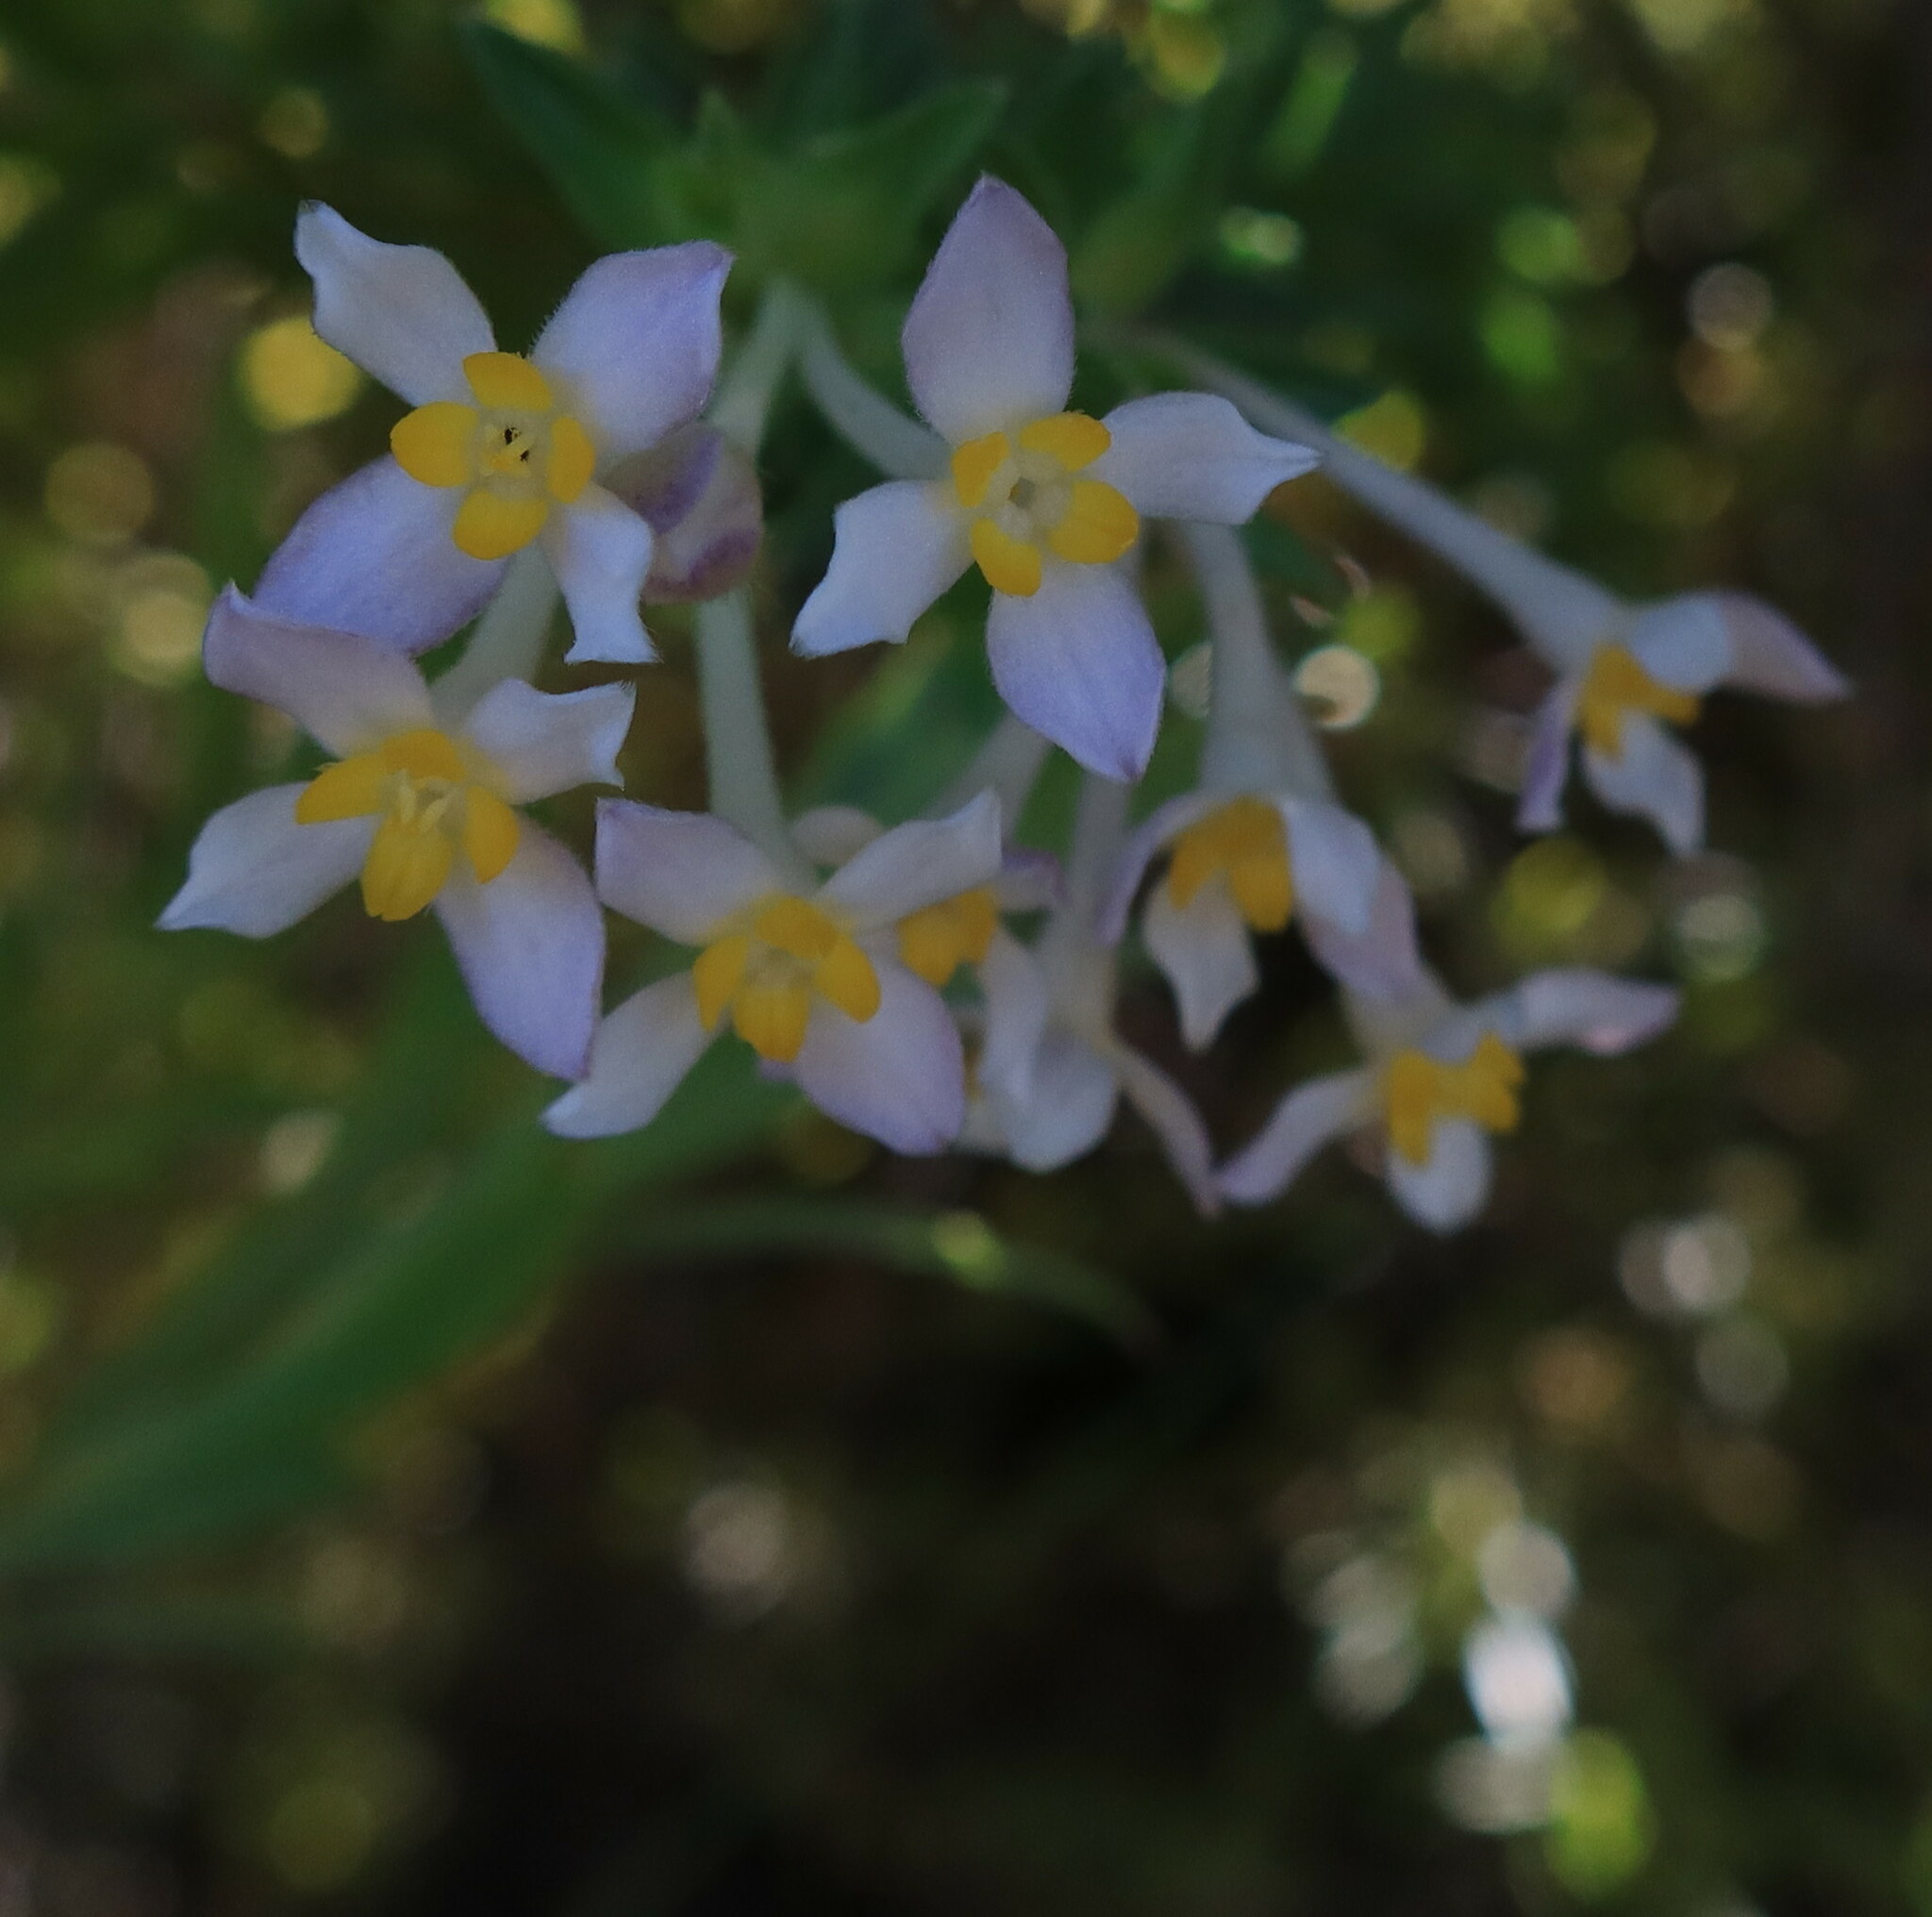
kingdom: Plantae
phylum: Tracheophyta
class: Magnoliopsida
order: Malvales
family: Thymelaeaceae
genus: Gnidia
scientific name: Gnidia tomentosa
